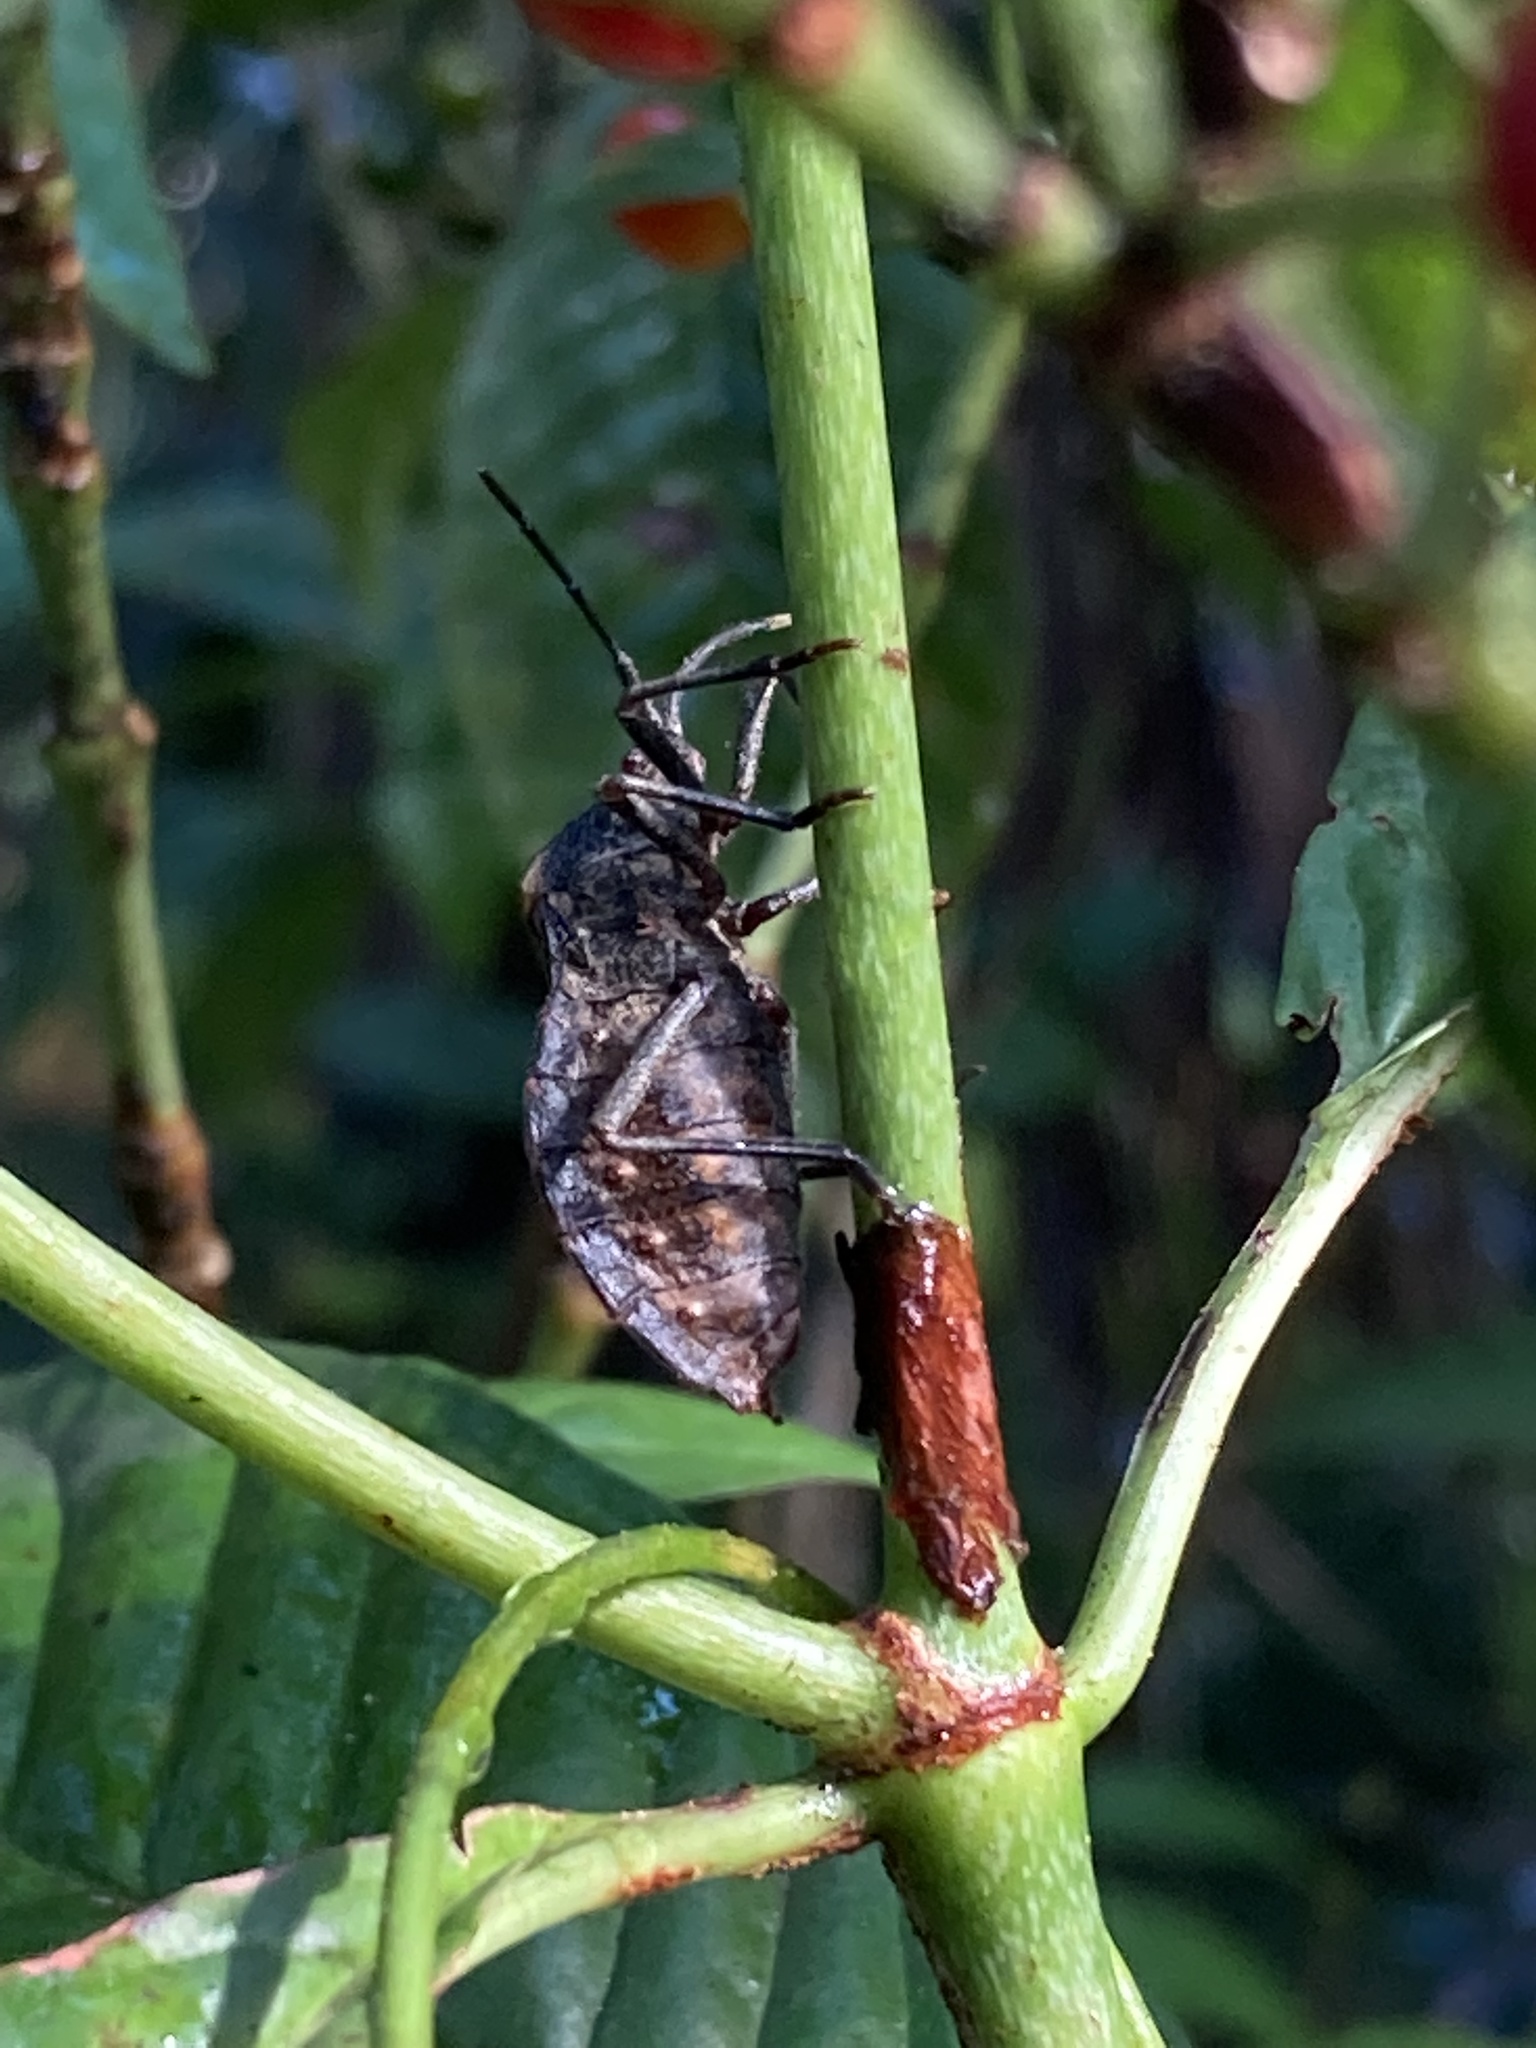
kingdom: Animalia
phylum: Arthropoda
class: Insecta
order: Hemiptera
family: Coreidae
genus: Spartocera
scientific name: Spartocera batatas
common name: Giant sweetpotato bug
